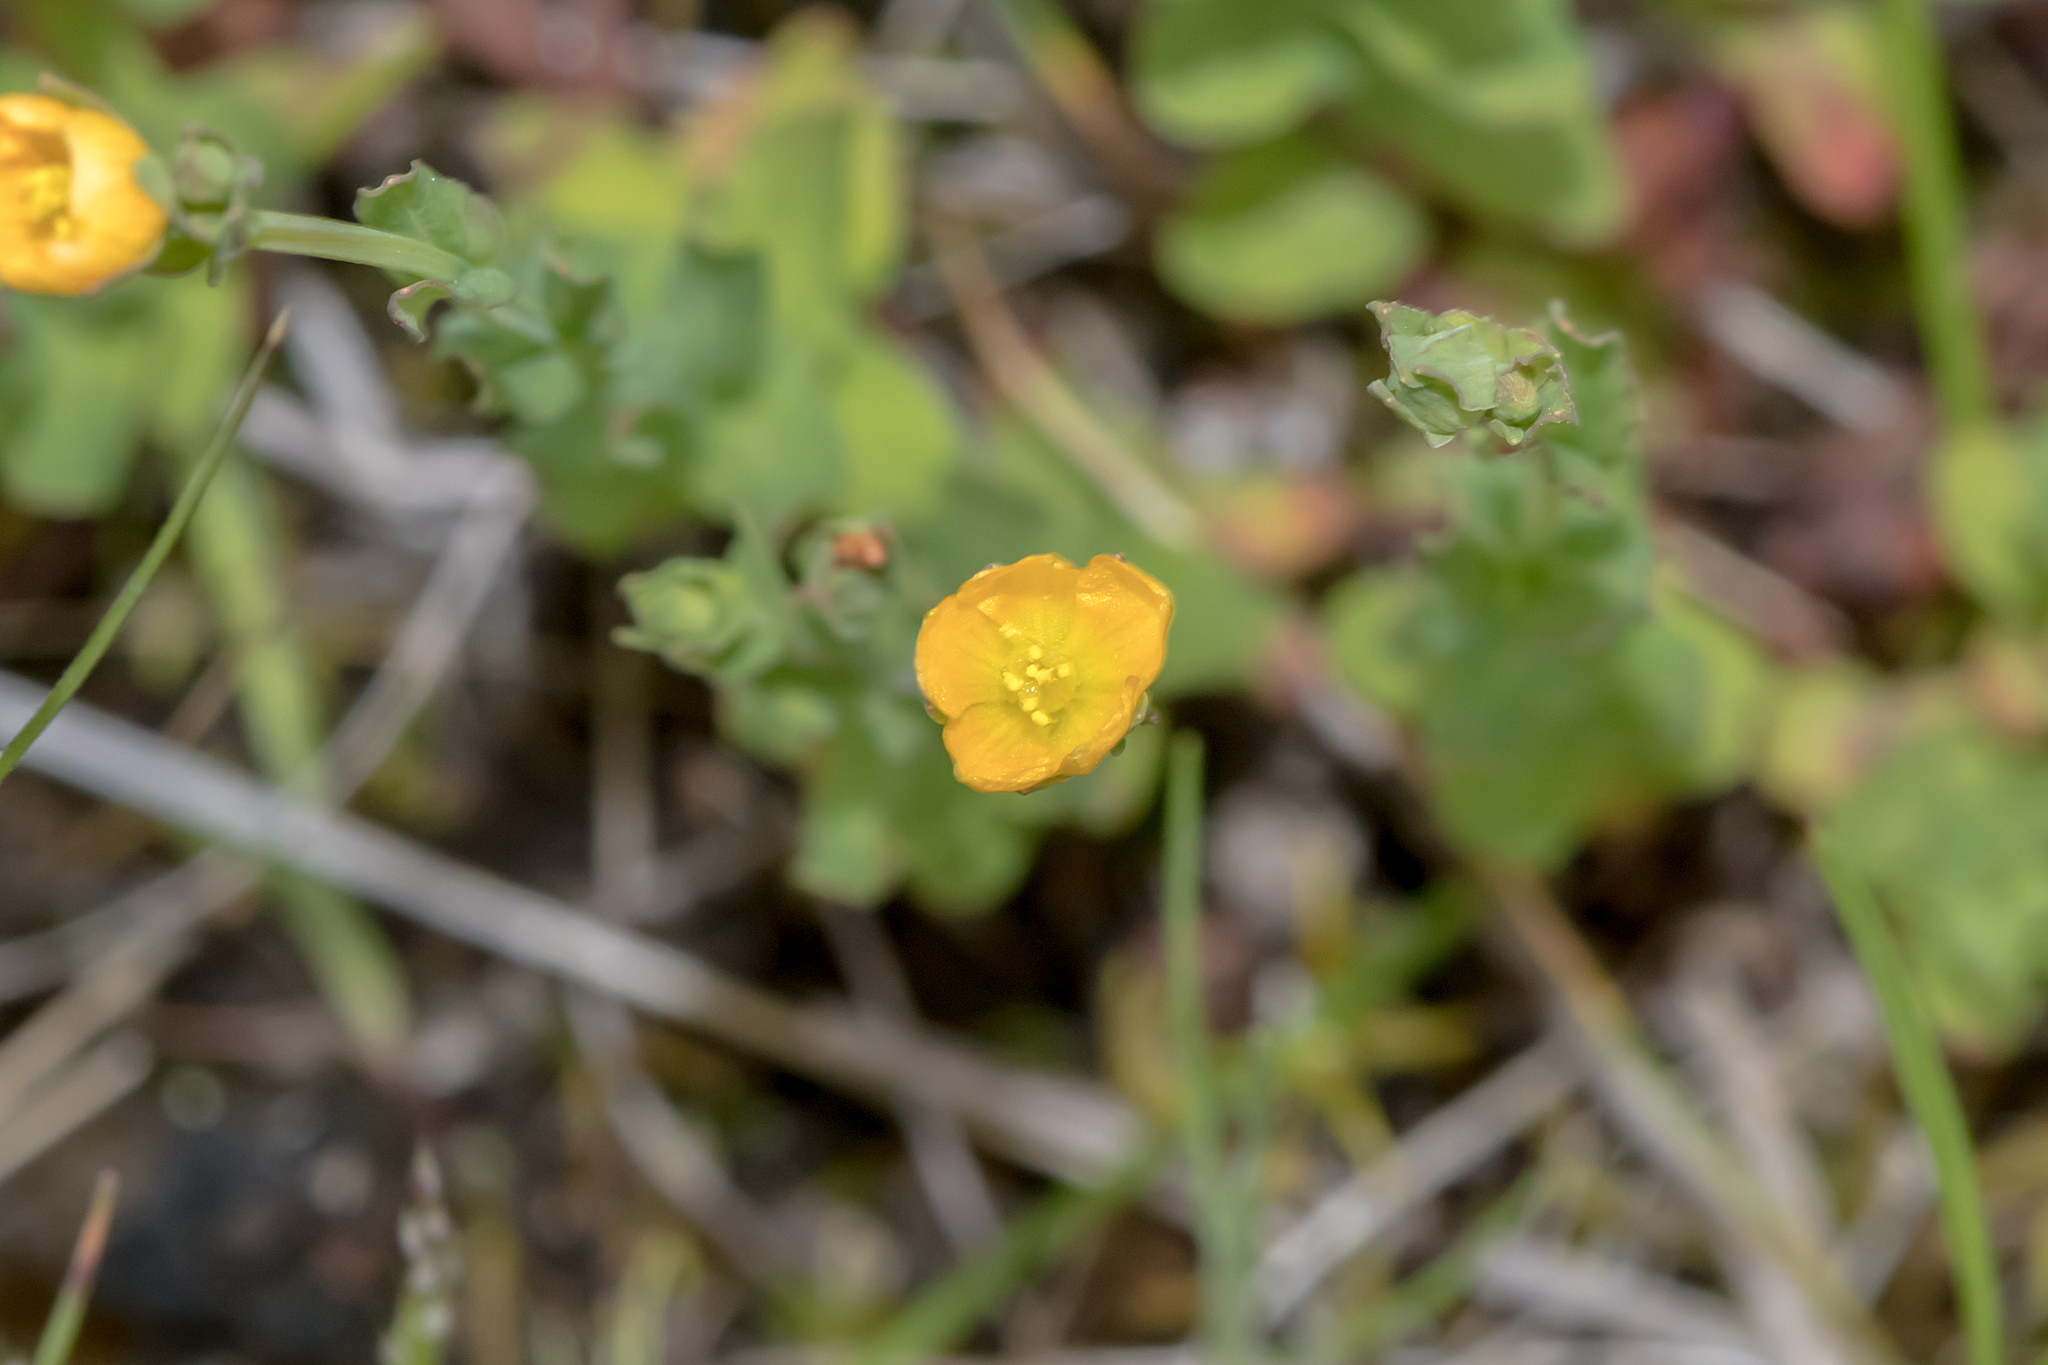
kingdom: Plantae
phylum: Tracheophyta
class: Magnoliopsida
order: Malpighiales
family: Hypericaceae
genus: Hypericum
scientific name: Hypericum gramineum
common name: Grassy st. johnswort
